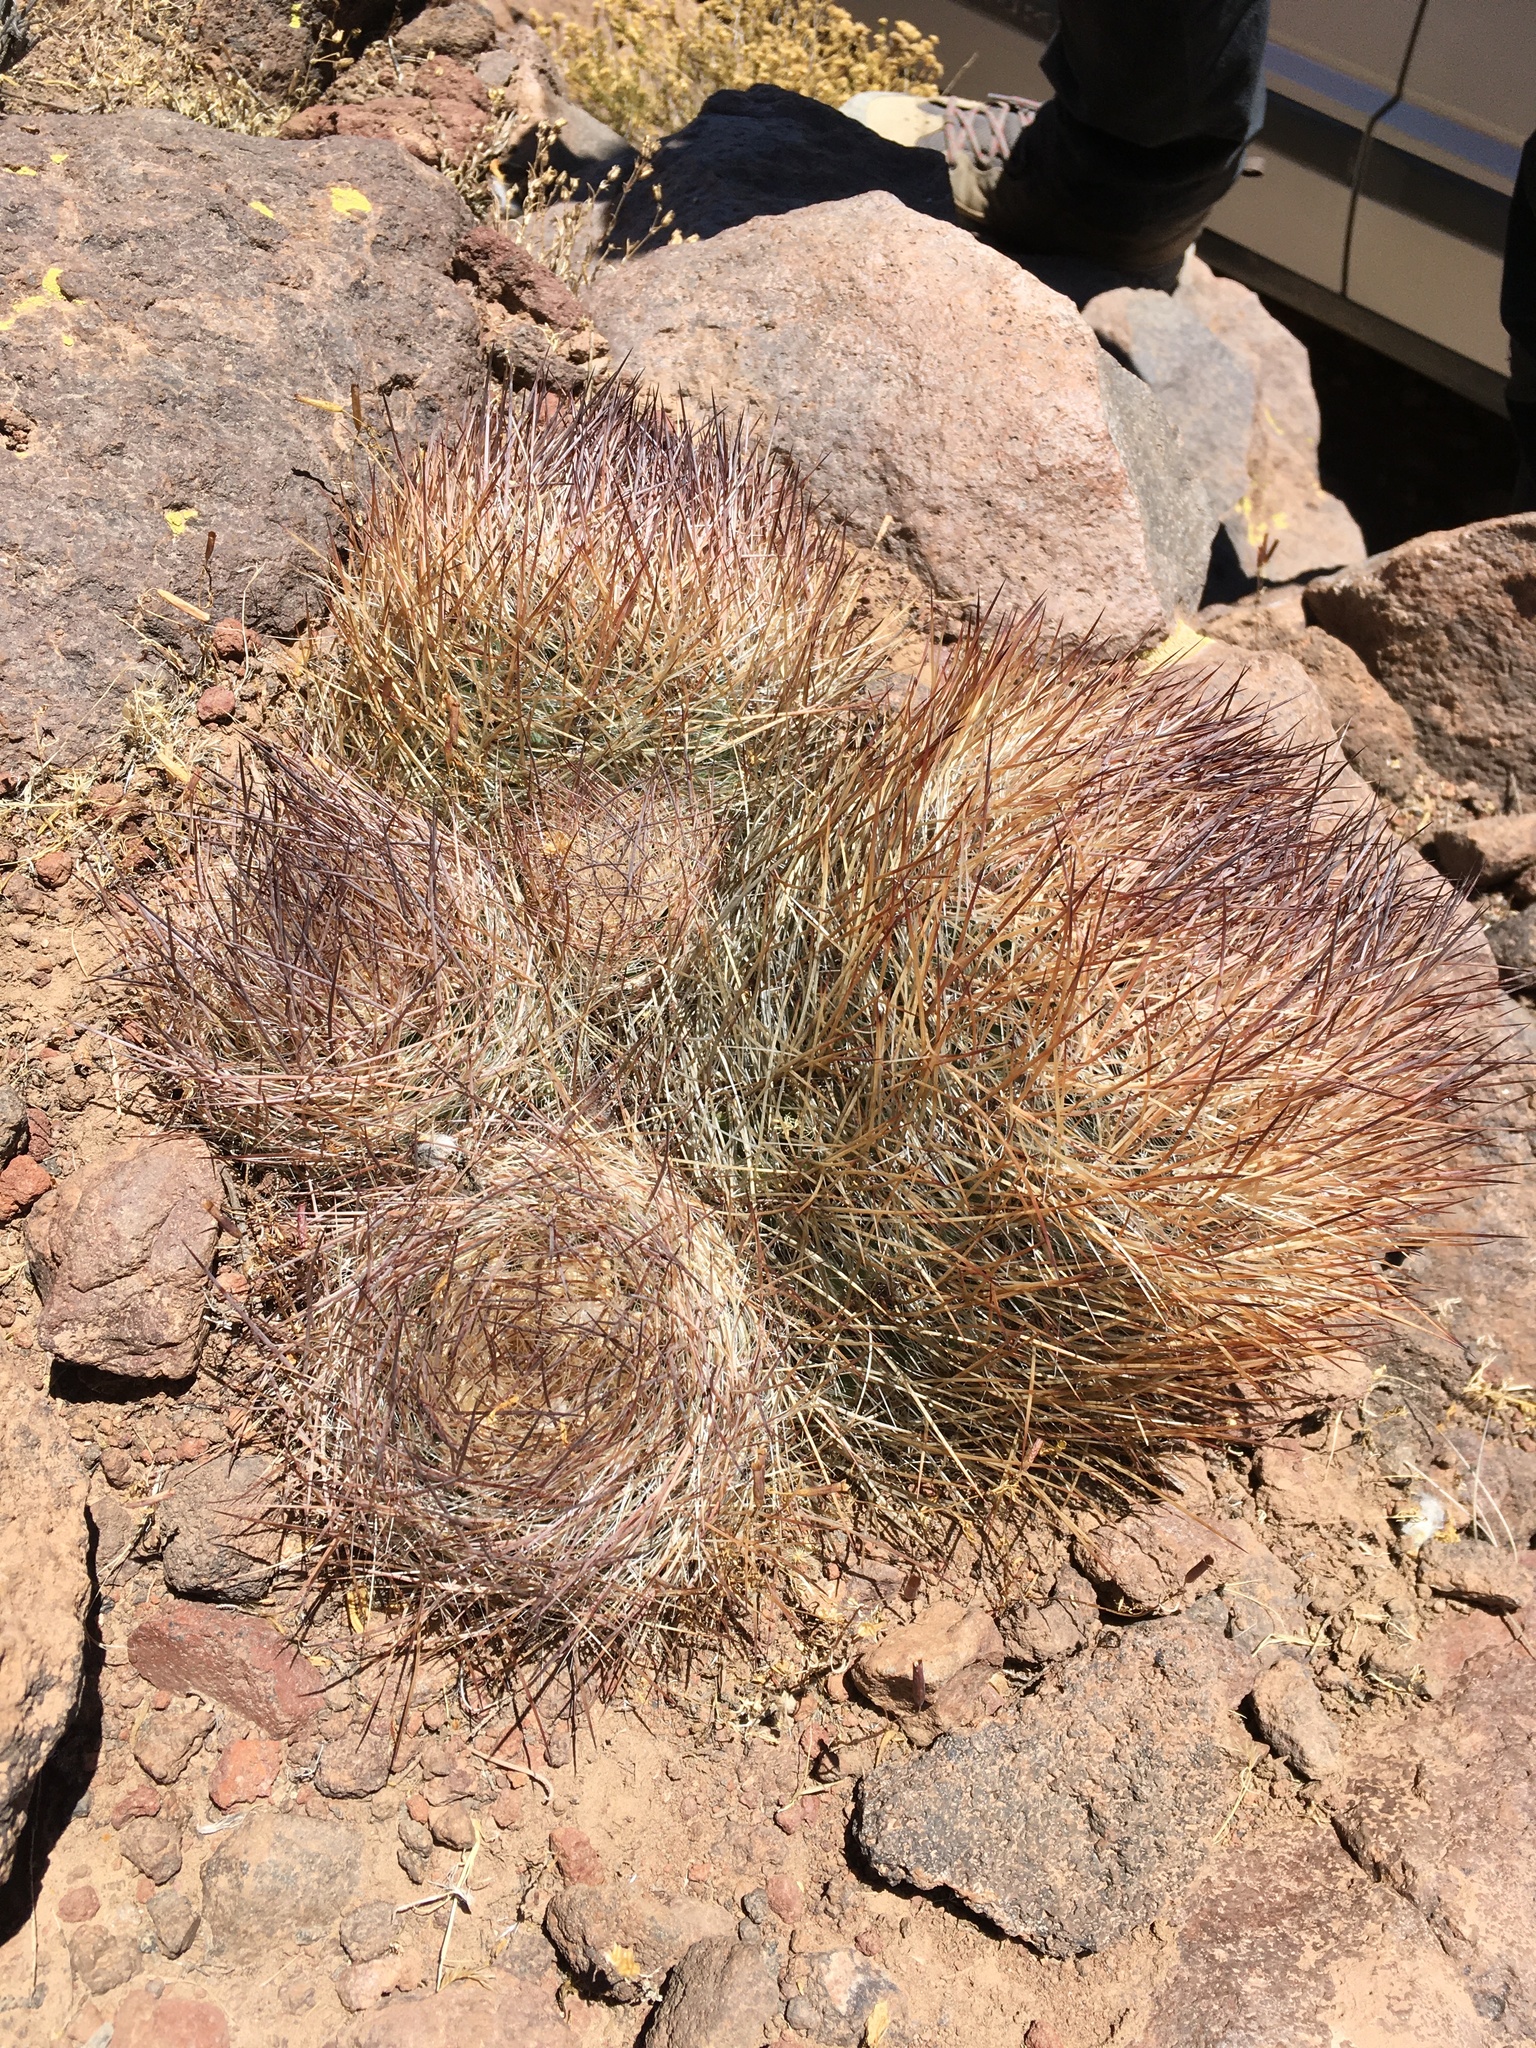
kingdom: Plantae
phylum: Tracheophyta
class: Magnoliopsida
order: Caryophyllales
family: Cactaceae
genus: Oreocereus
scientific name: Oreocereus australis
